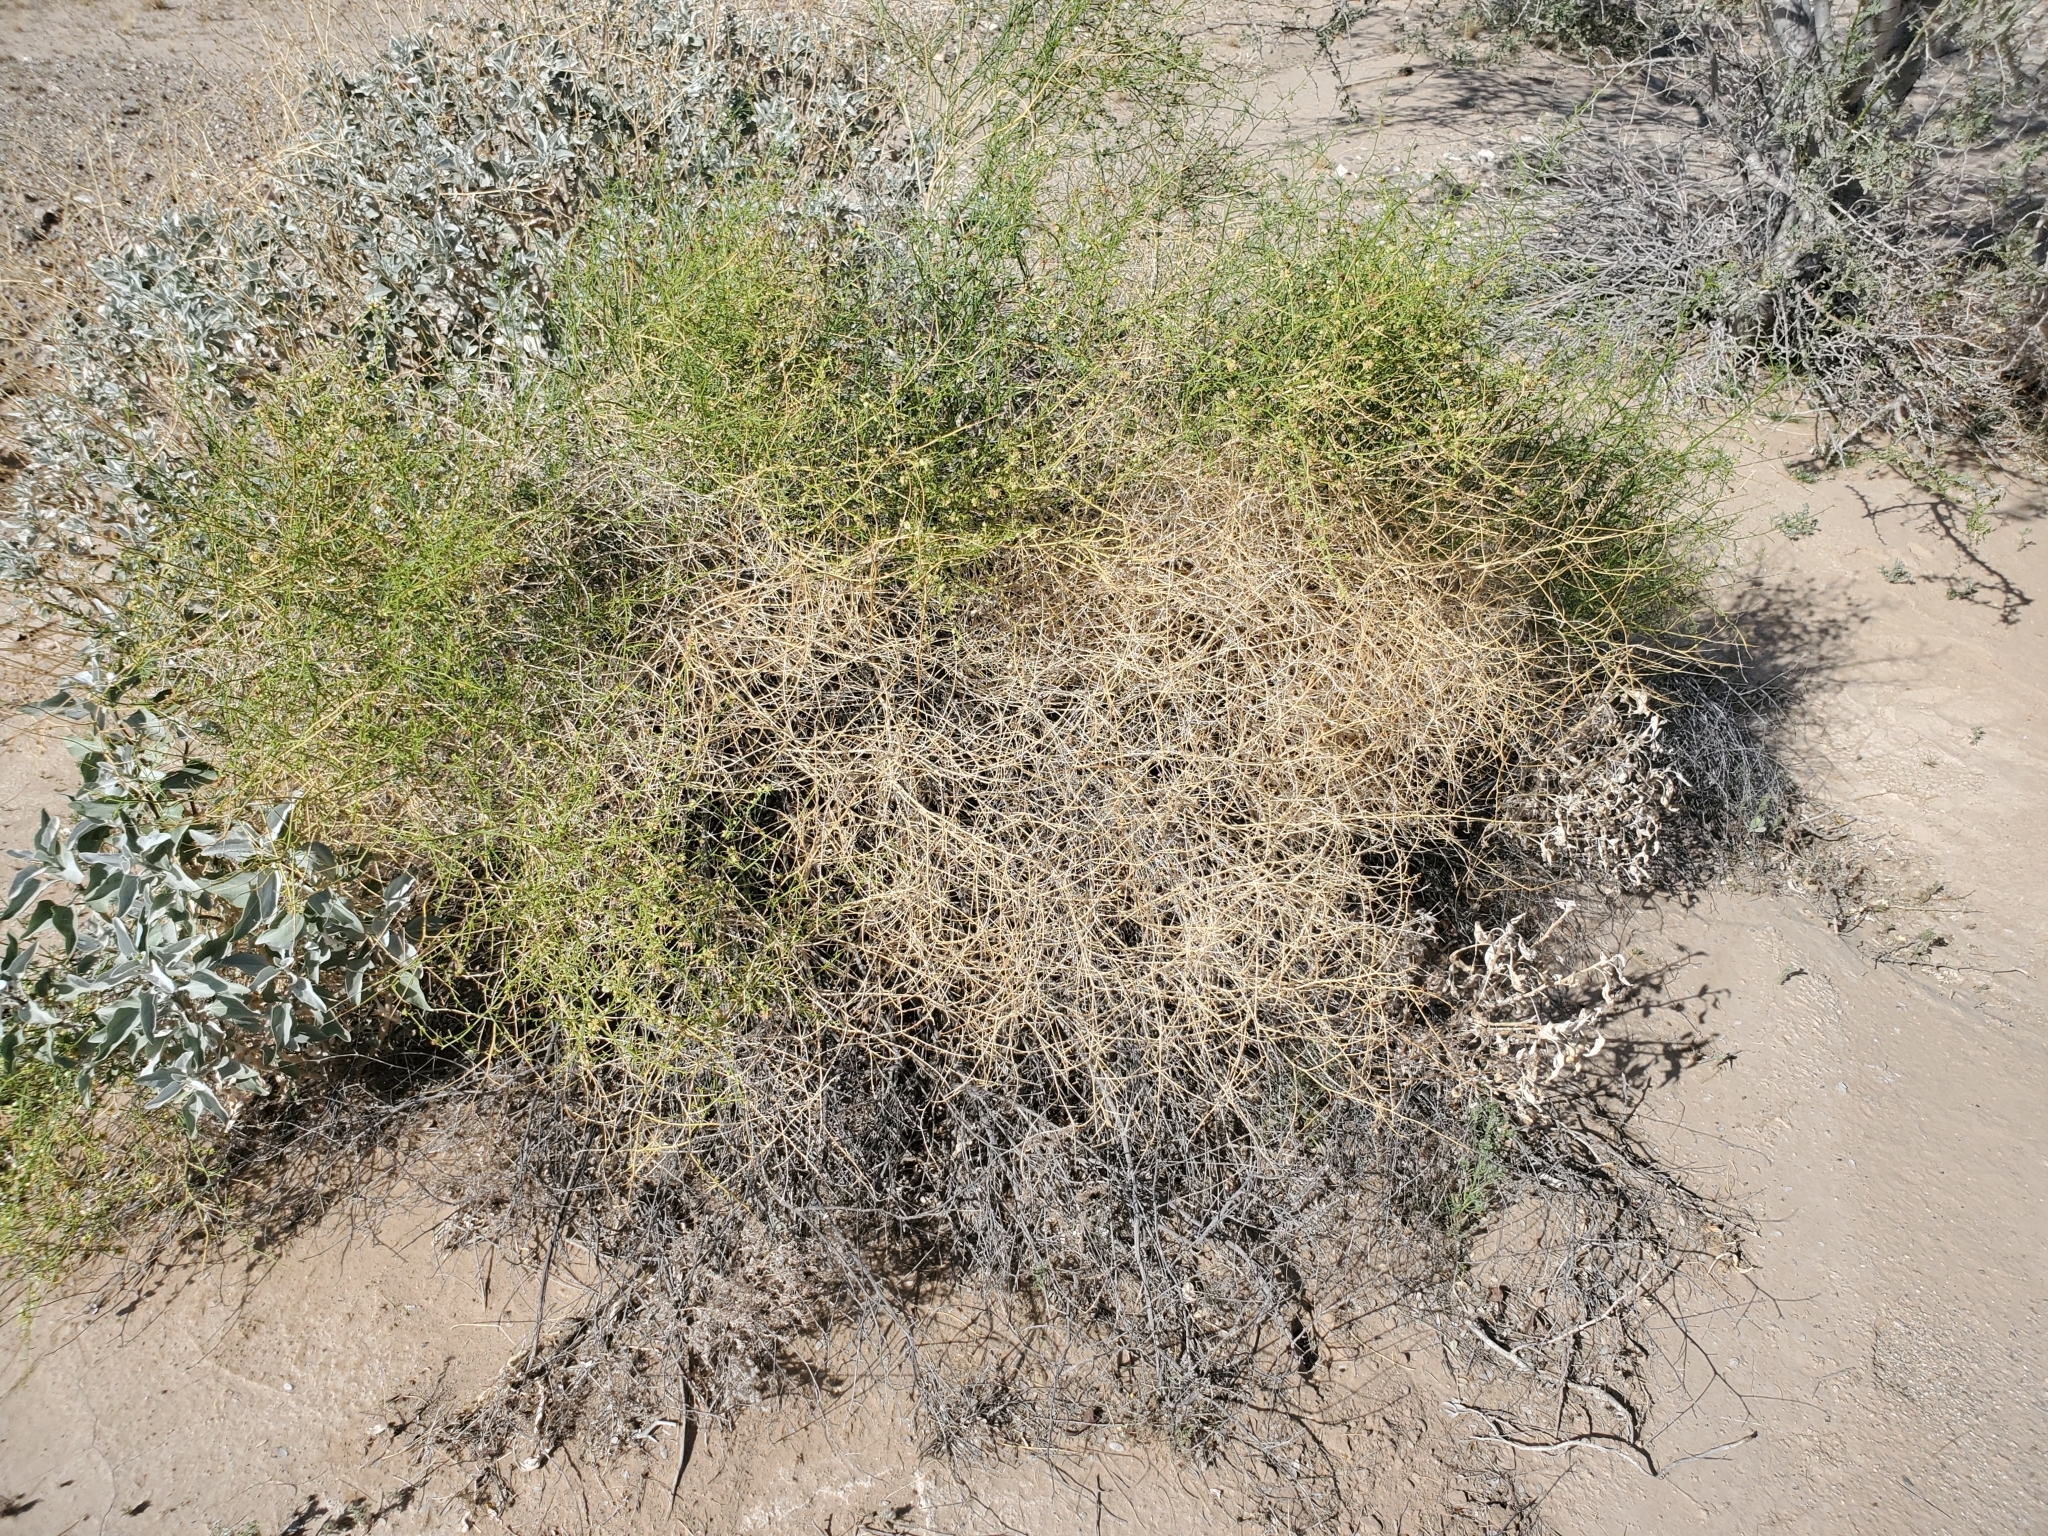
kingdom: Plantae
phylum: Tracheophyta
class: Magnoliopsida
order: Asterales
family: Asteraceae
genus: Ambrosia
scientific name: Ambrosia salsola
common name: Burrobrush
